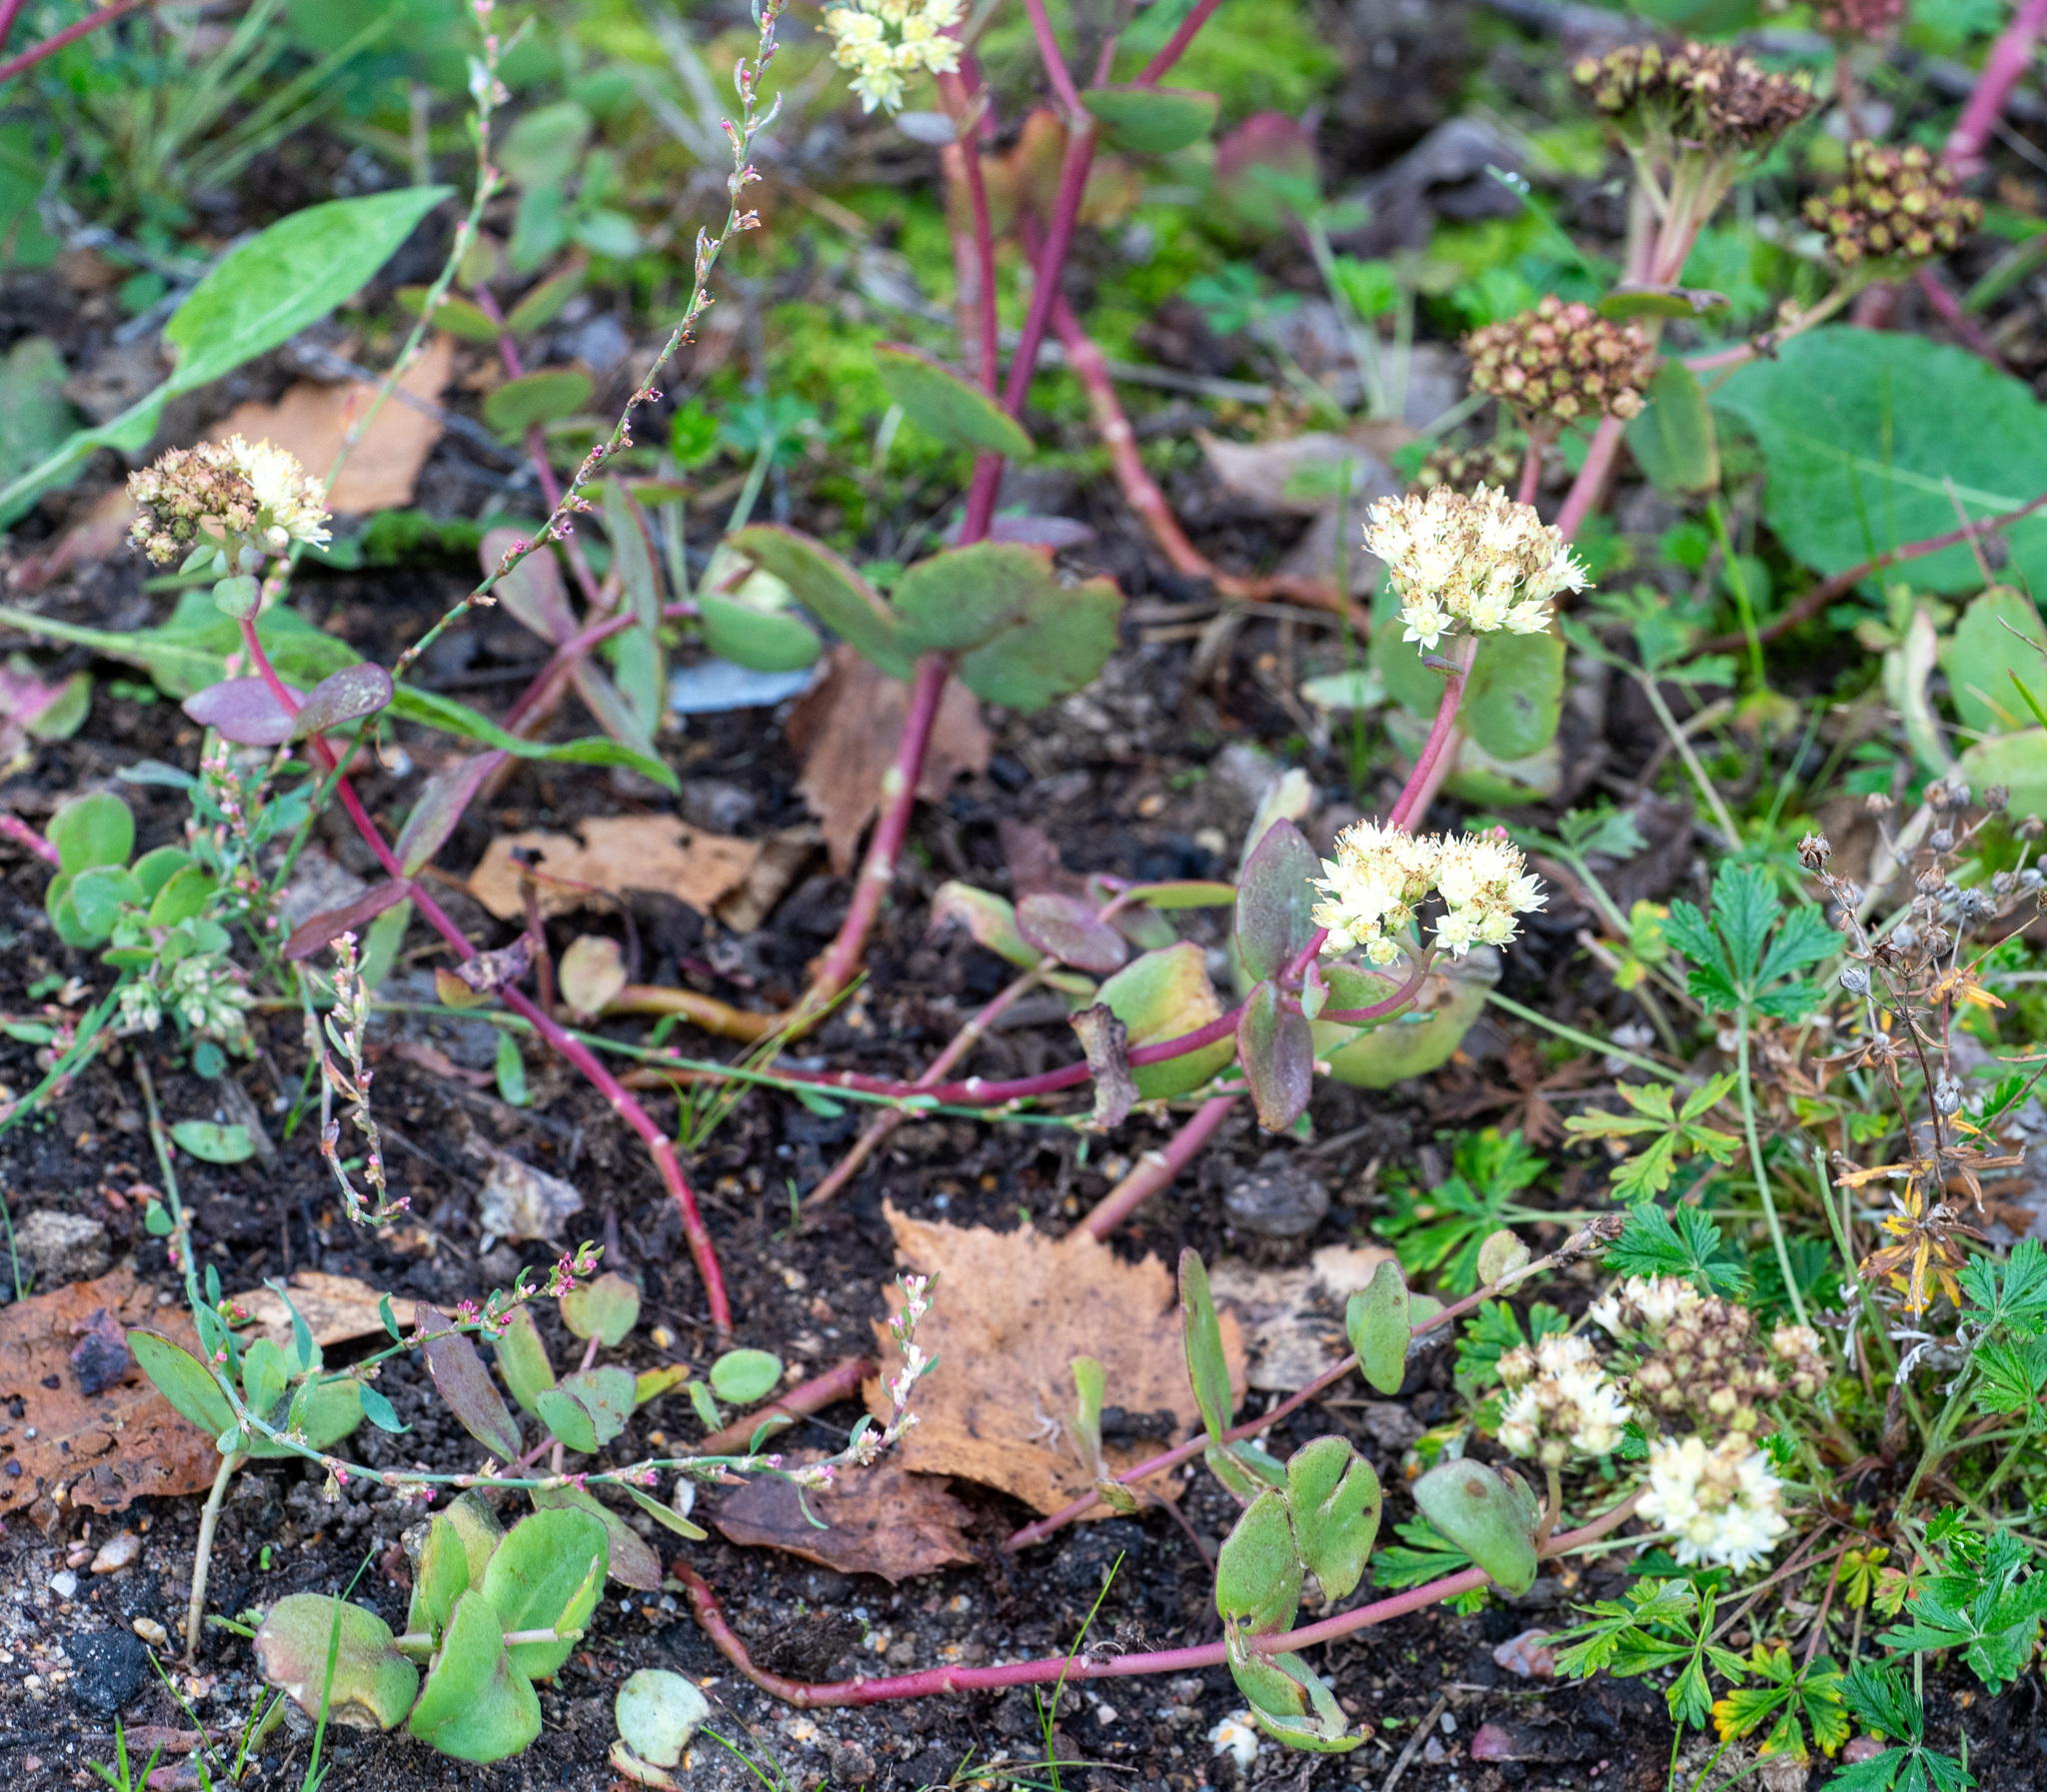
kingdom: Plantae
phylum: Tracheophyta
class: Magnoliopsida
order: Saxifragales
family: Crassulaceae
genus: Hylotelephium
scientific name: Hylotelephium maximum
